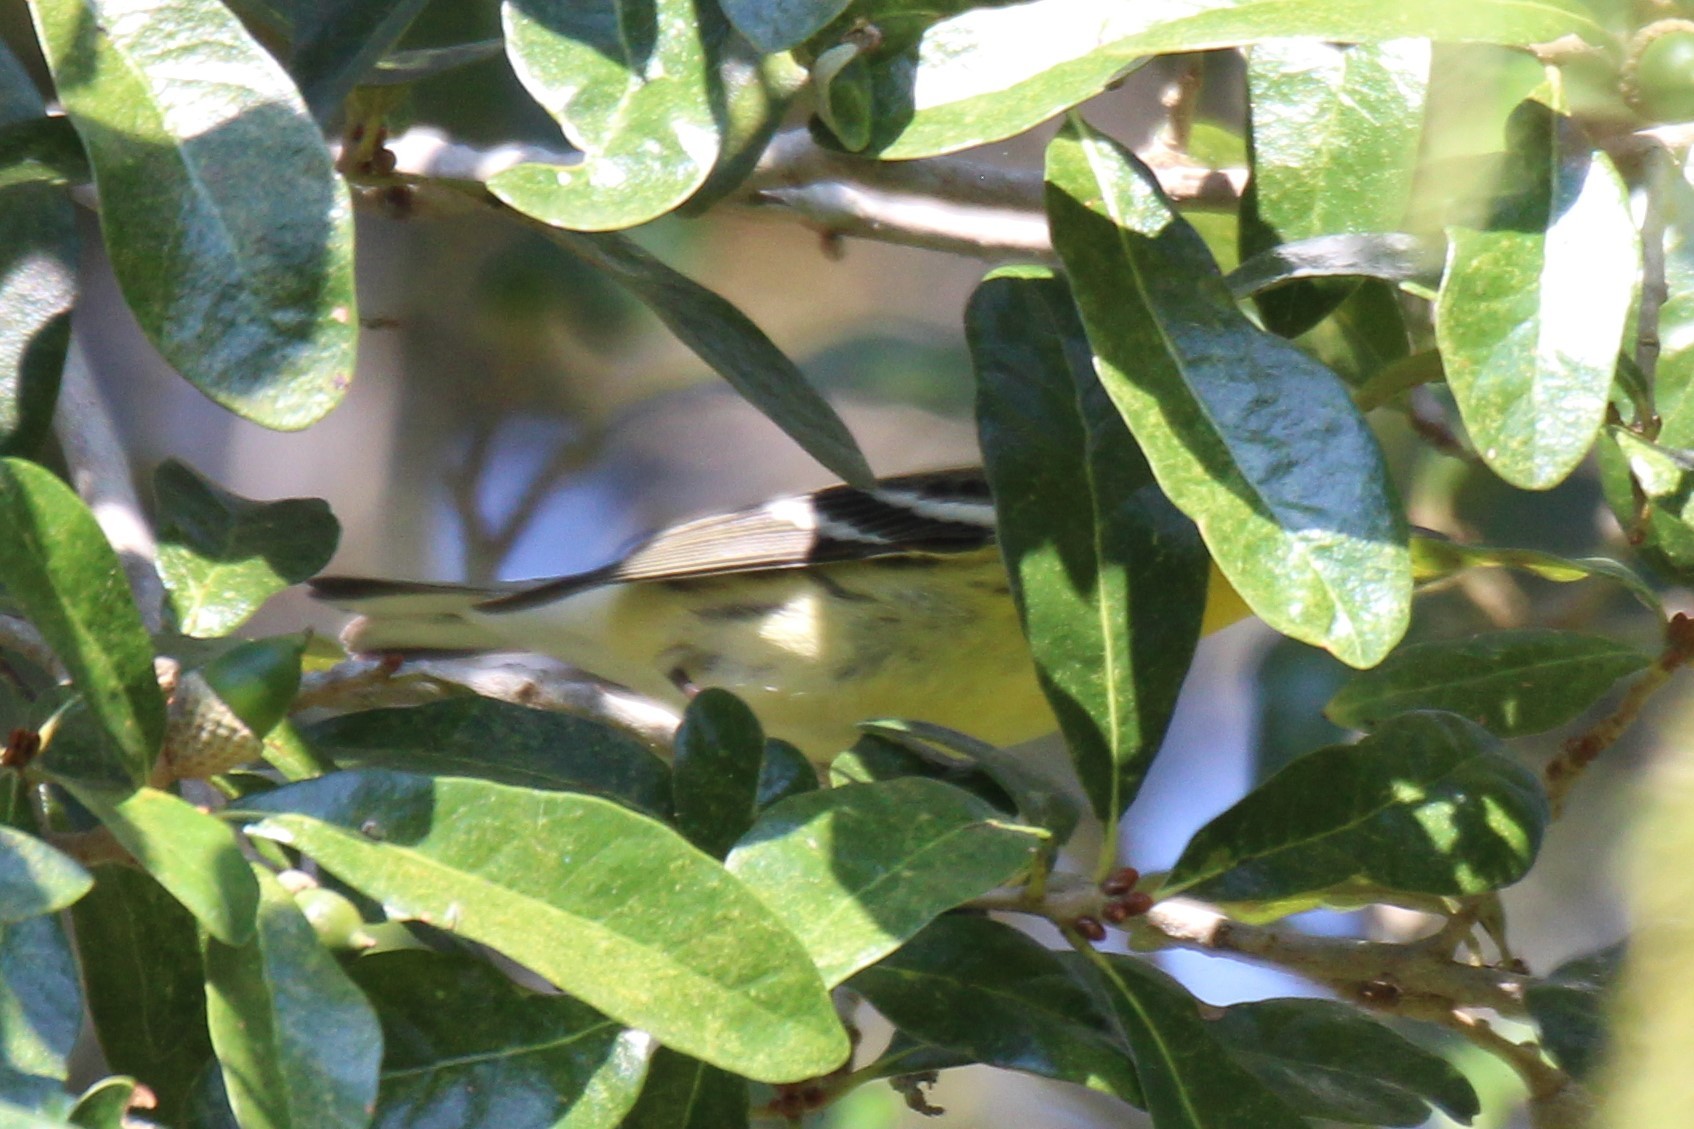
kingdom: Animalia
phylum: Chordata
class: Aves
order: Passeriformes
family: Parulidae
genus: Setophaga
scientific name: Setophaga fusca
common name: Blackburnian warbler
